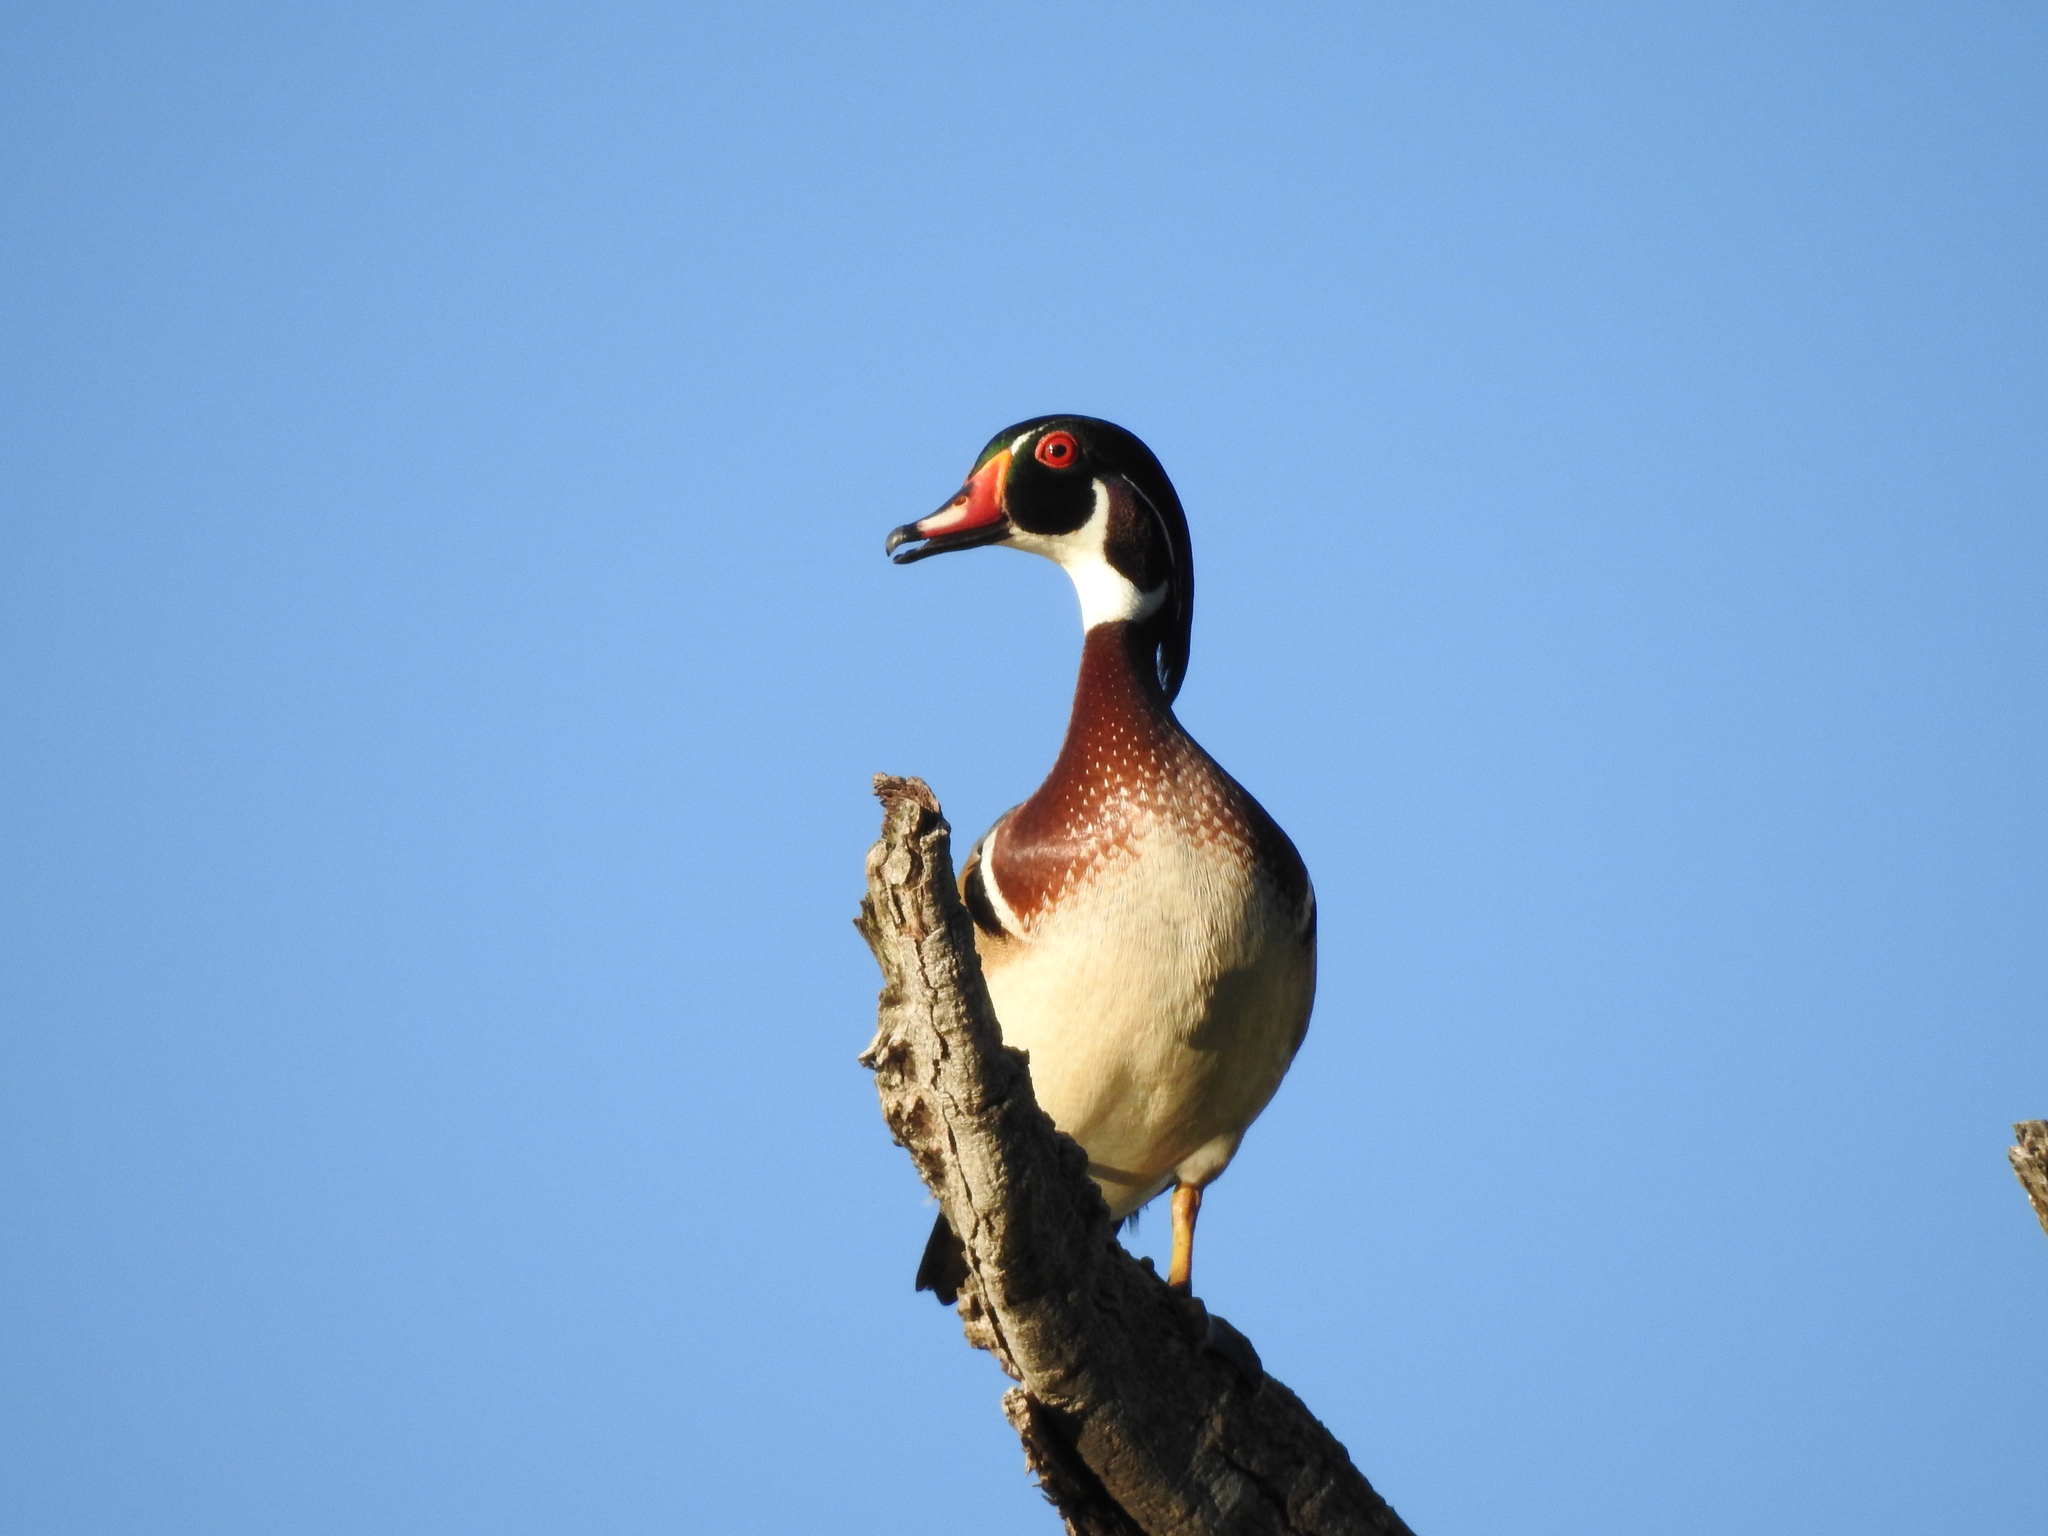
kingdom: Animalia
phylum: Chordata
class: Aves
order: Anseriformes
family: Anatidae
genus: Aix
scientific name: Aix sponsa
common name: Wood duck
